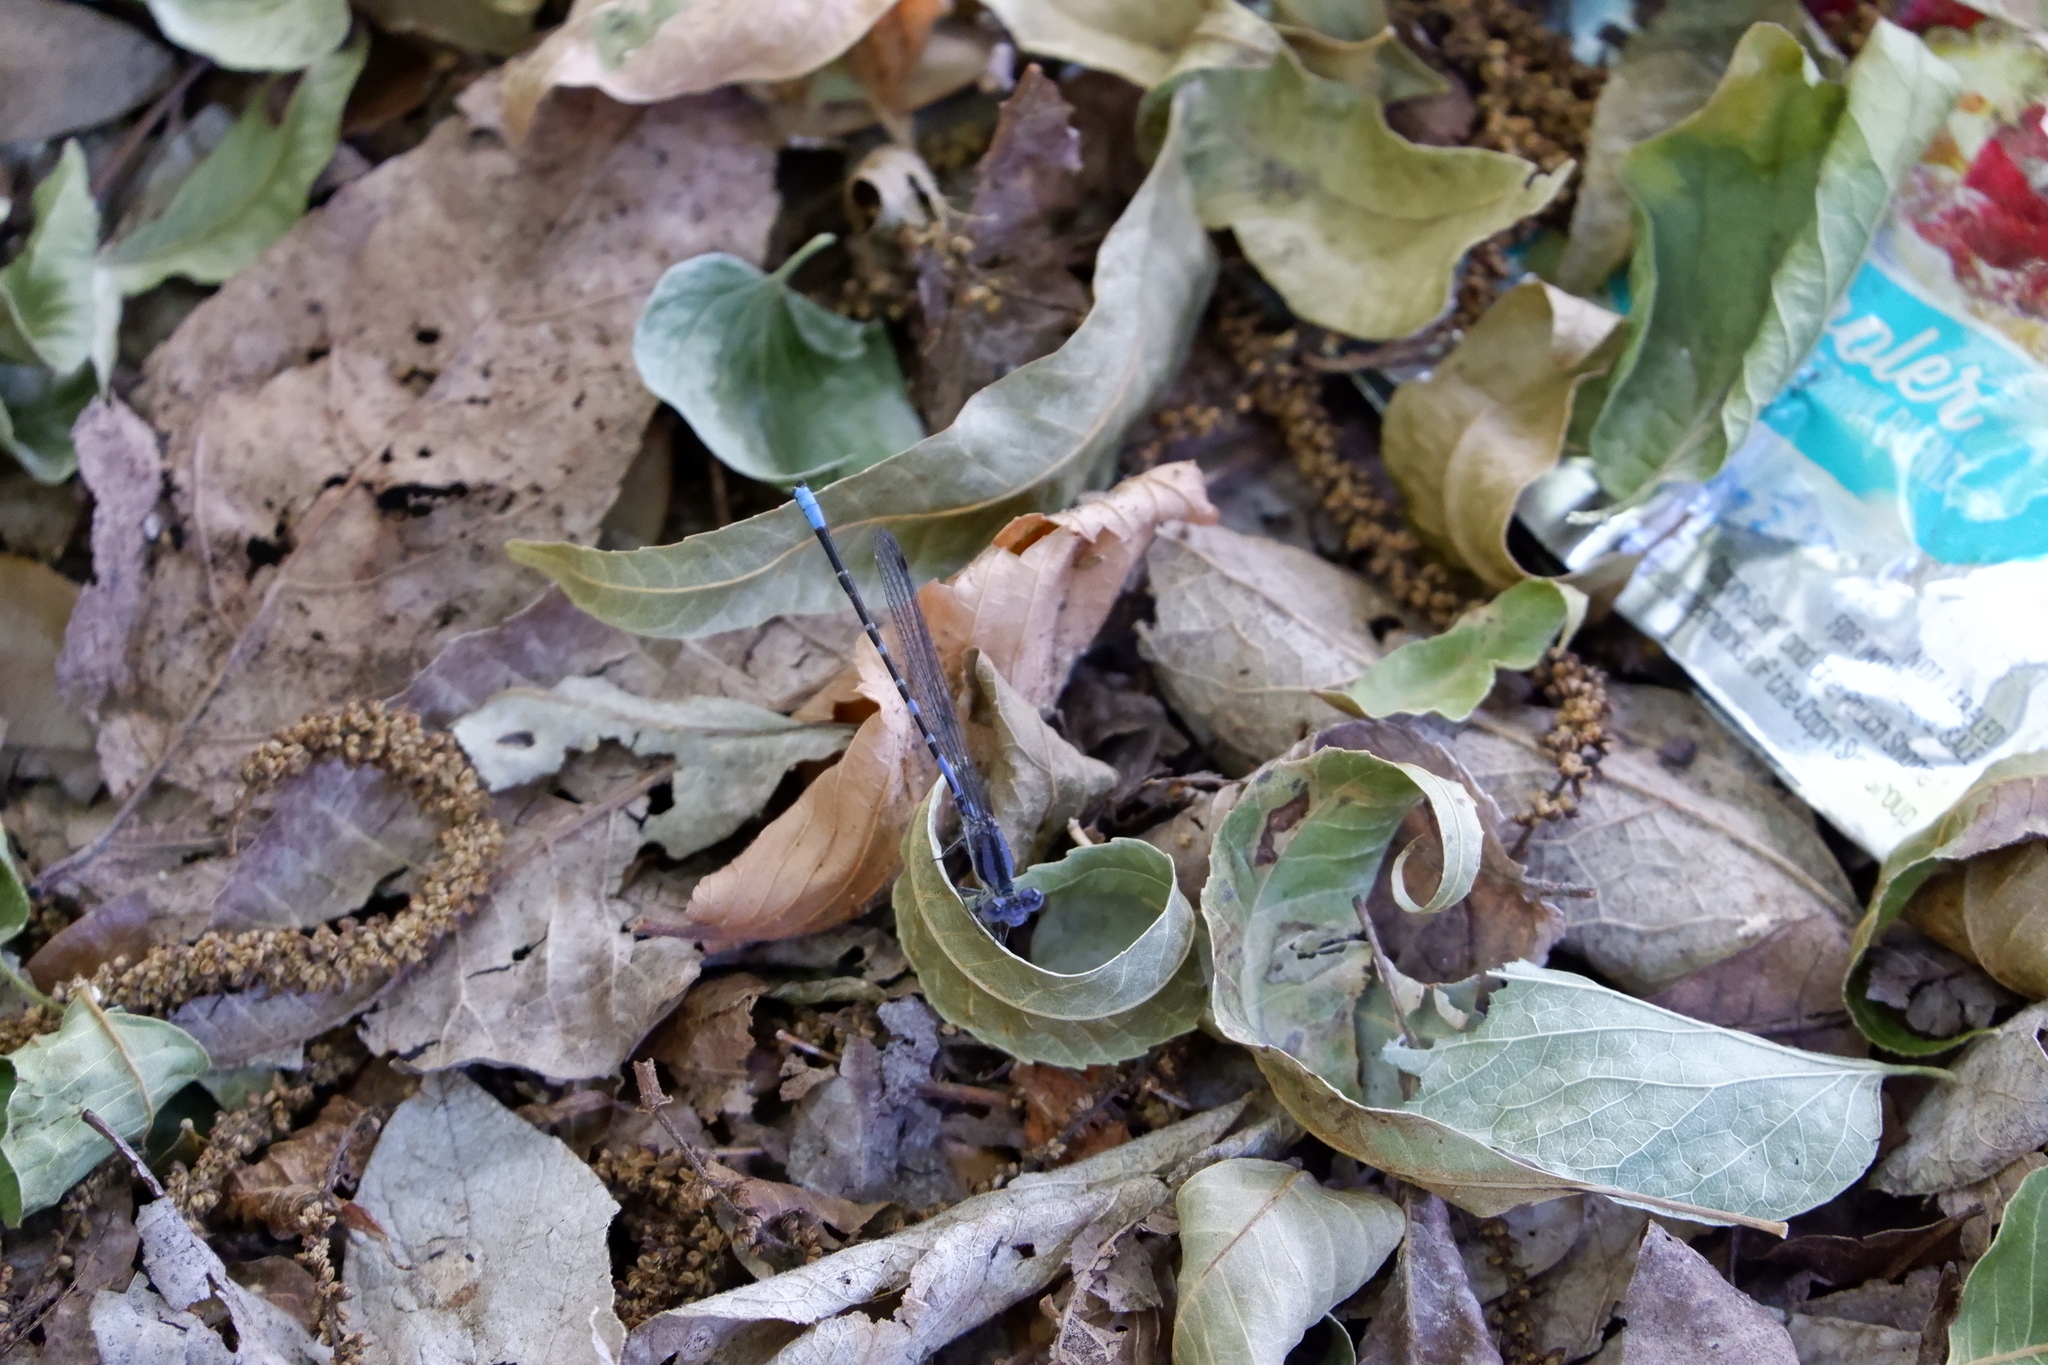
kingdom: Animalia
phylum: Arthropoda
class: Insecta
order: Odonata
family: Coenagrionidae
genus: Argia
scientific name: Argia immunda
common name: Kiowa dancer
